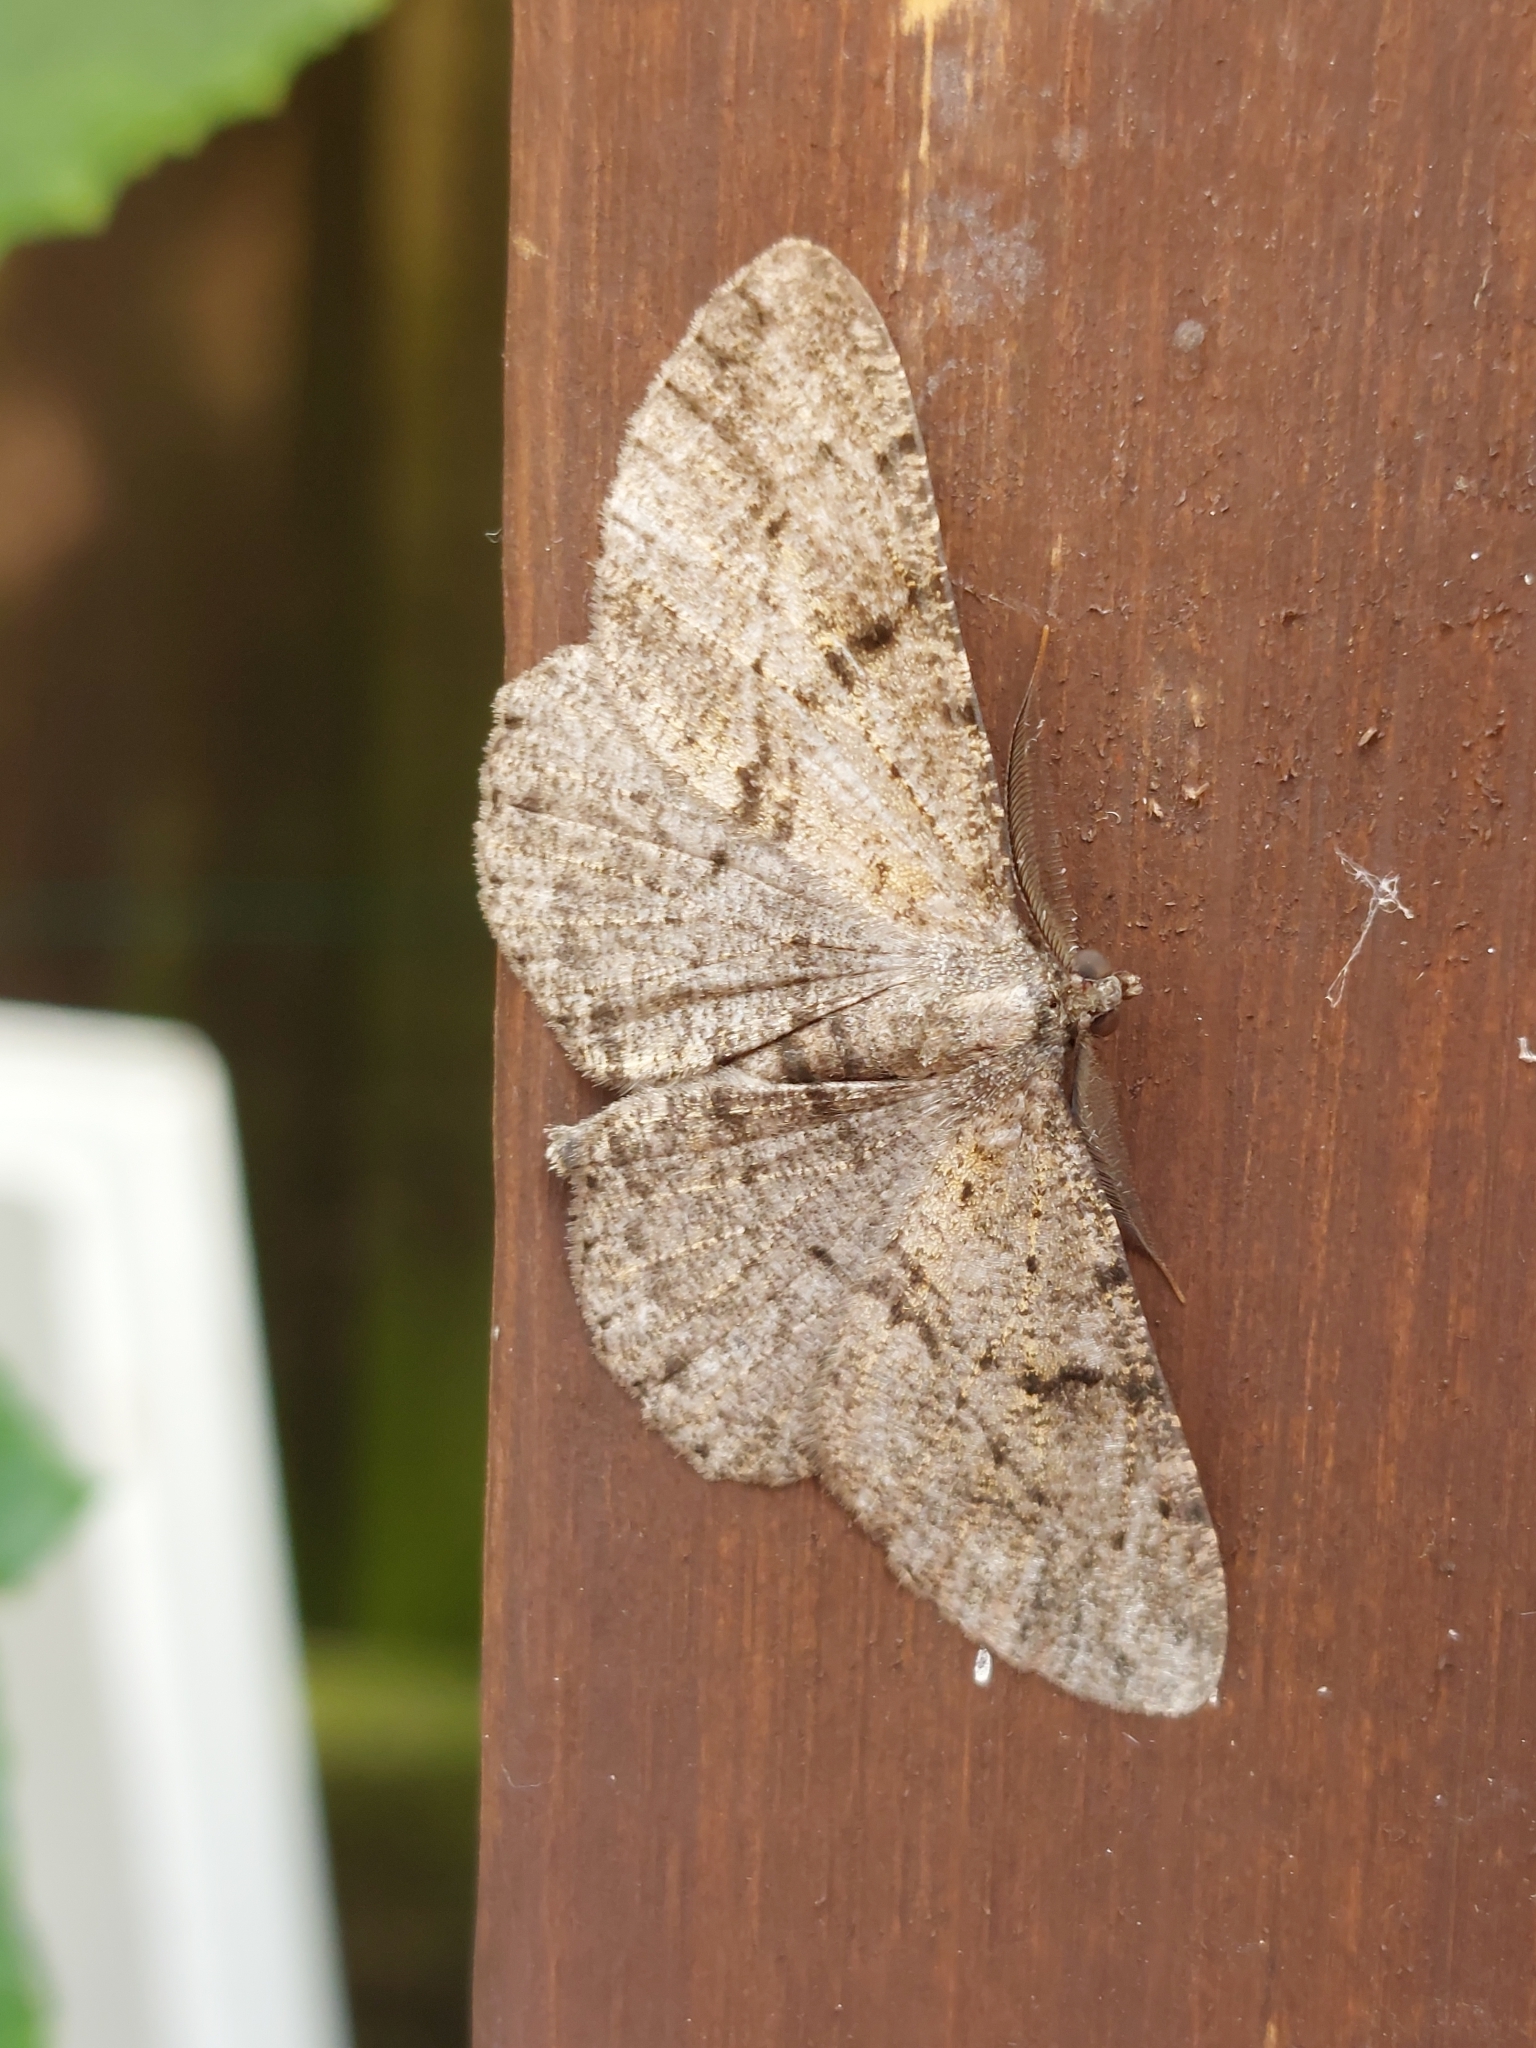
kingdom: Animalia
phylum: Arthropoda
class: Insecta
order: Lepidoptera
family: Geometridae
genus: Peribatodes
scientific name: Peribatodes rhomboidaria
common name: Willow beauty
